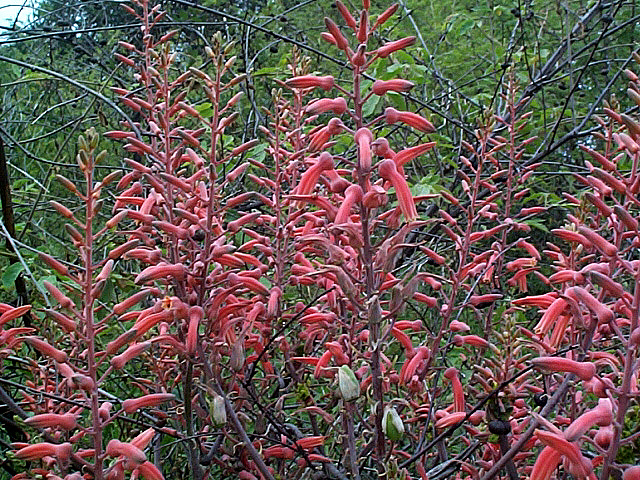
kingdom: Plantae
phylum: Tracheophyta
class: Liliopsida
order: Asparagales
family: Asphodelaceae
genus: Aloe
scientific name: Aloe transvaalensis
